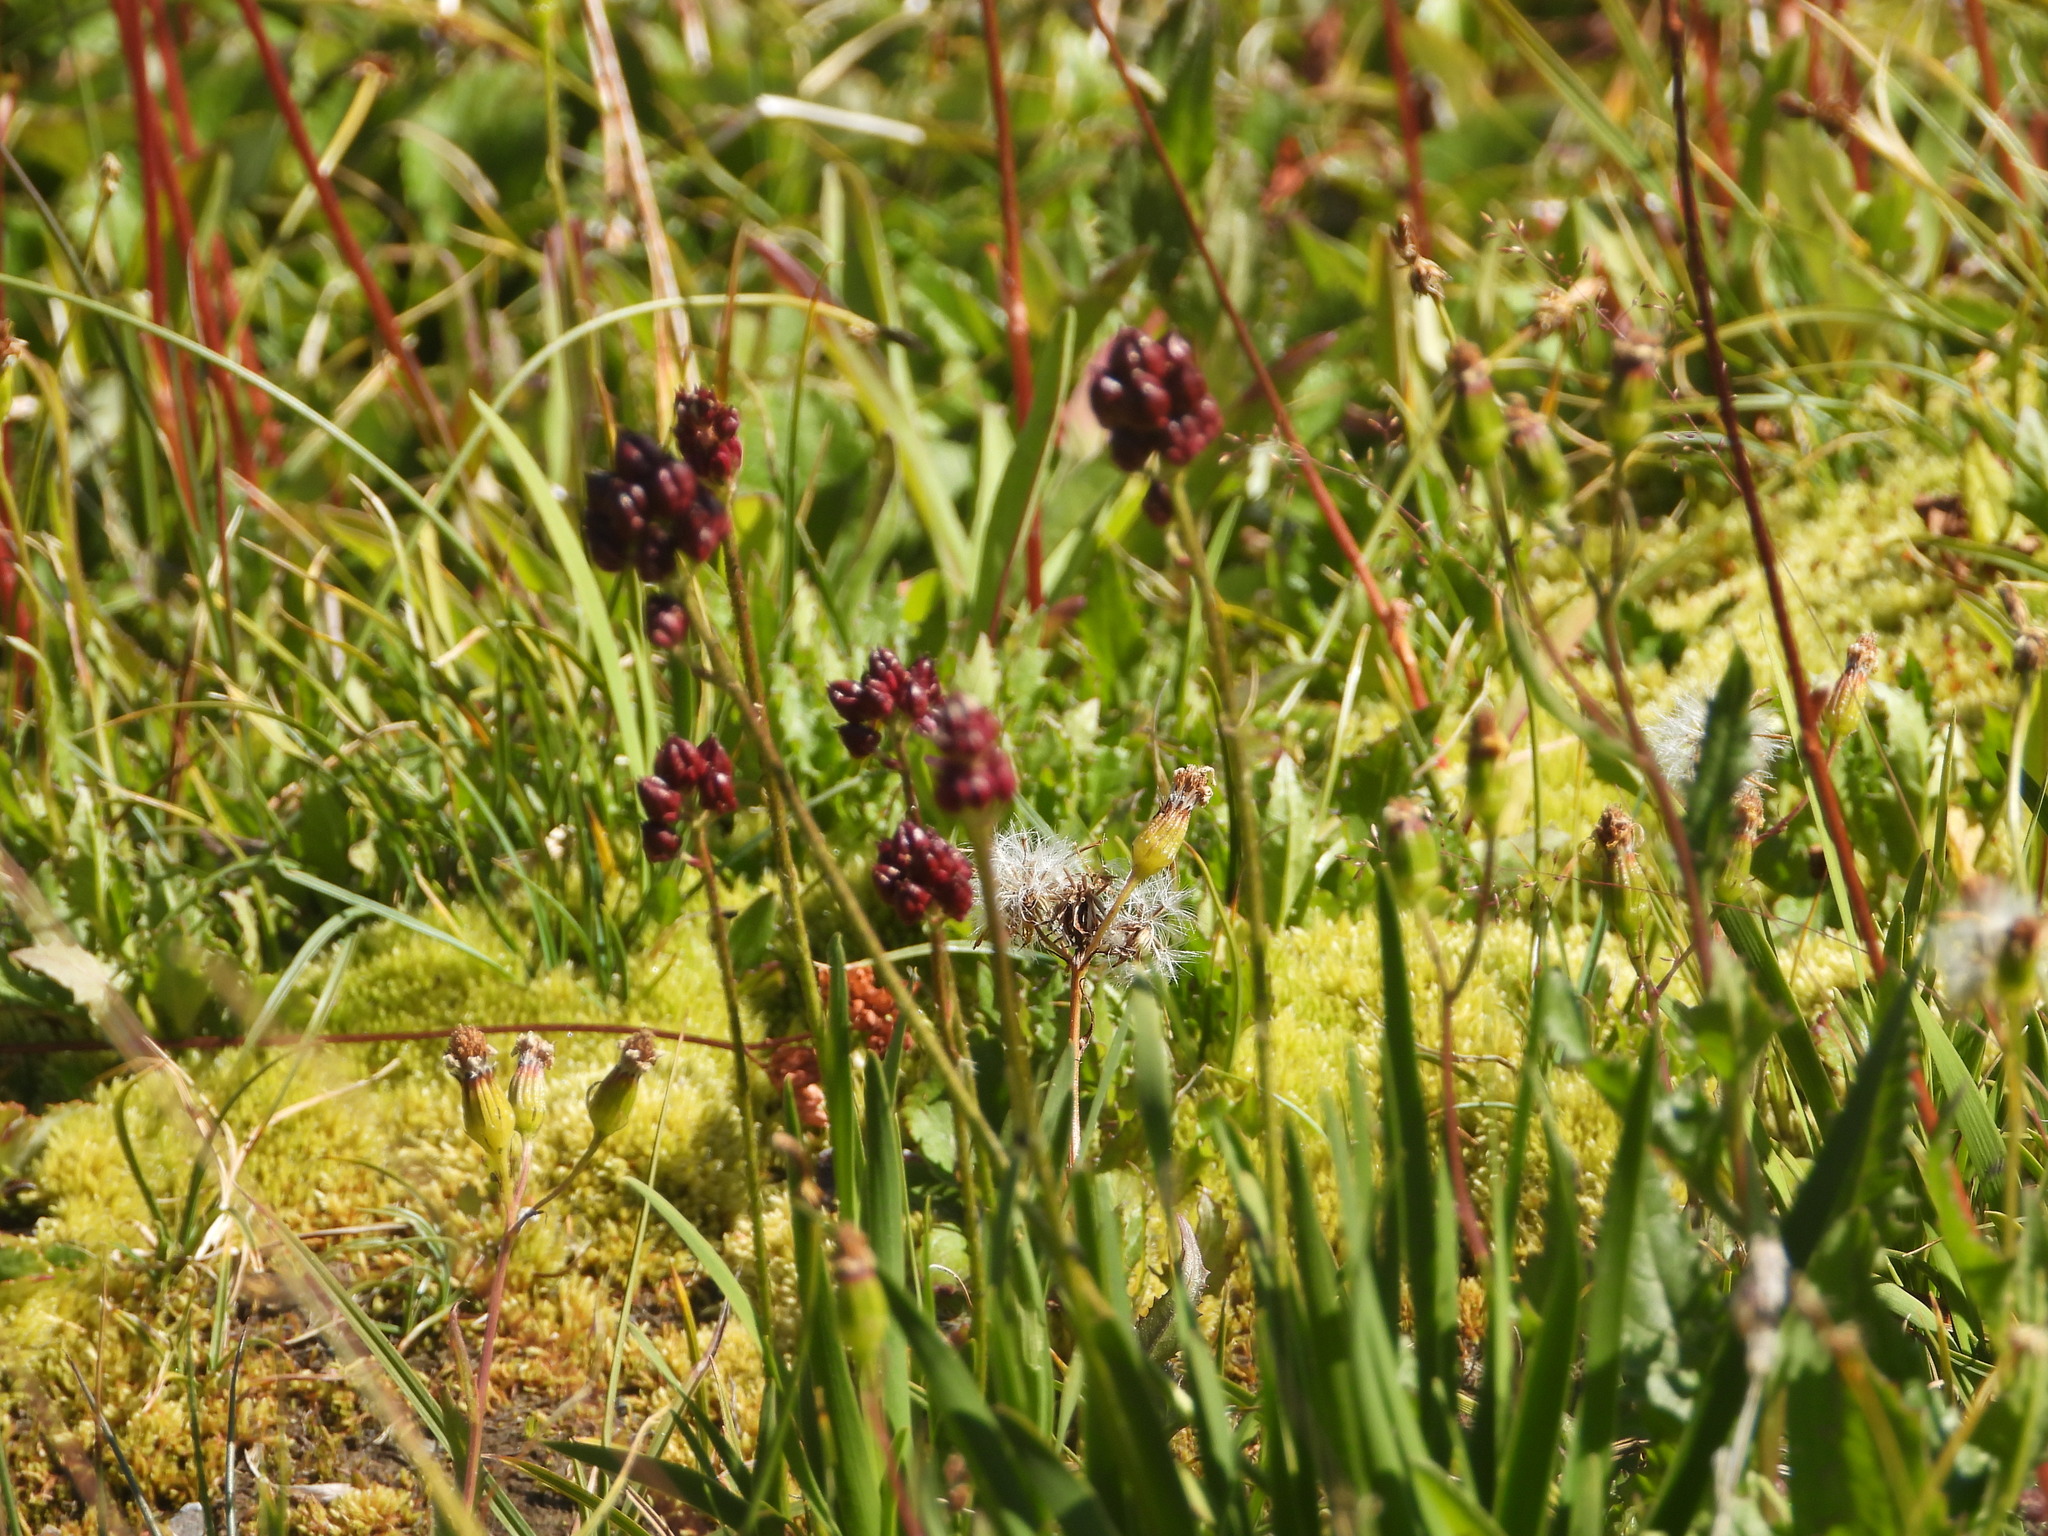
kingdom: Plantae
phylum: Tracheophyta
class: Liliopsida
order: Alismatales
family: Tofieldiaceae
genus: Triantha
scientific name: Triantha occidentalis
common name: Western false asphodel
